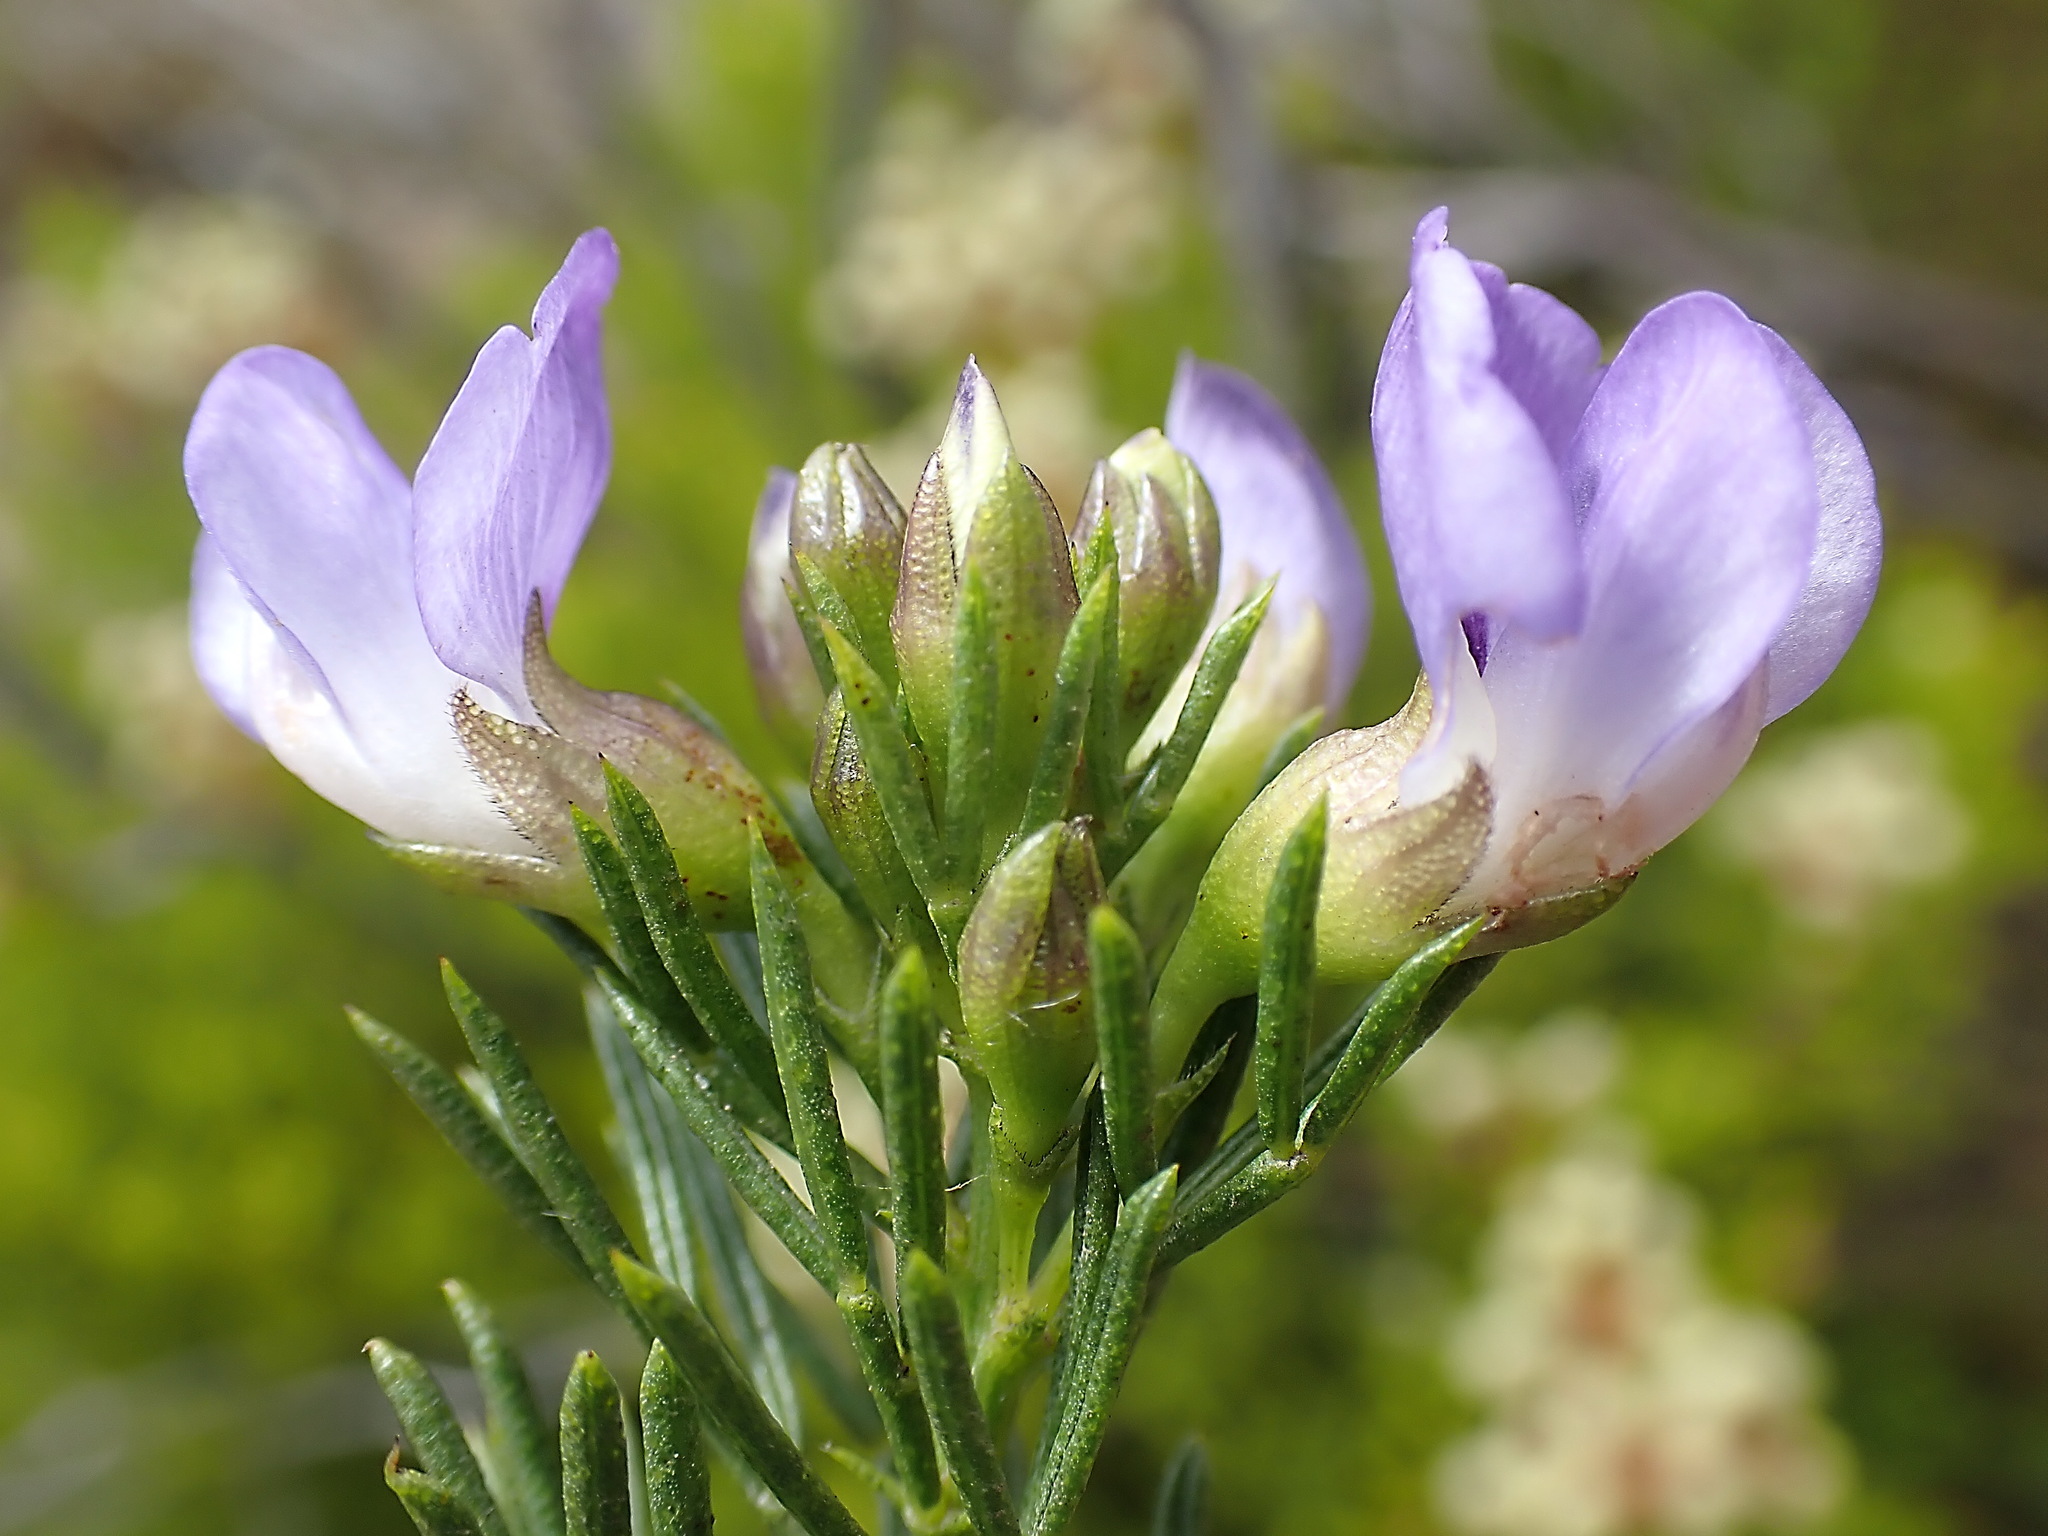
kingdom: Plantae
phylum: Tracheophyta
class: Magnoliopsida
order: Fabales
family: Fabaceae
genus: Psoralea
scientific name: Psoralea axillaris
